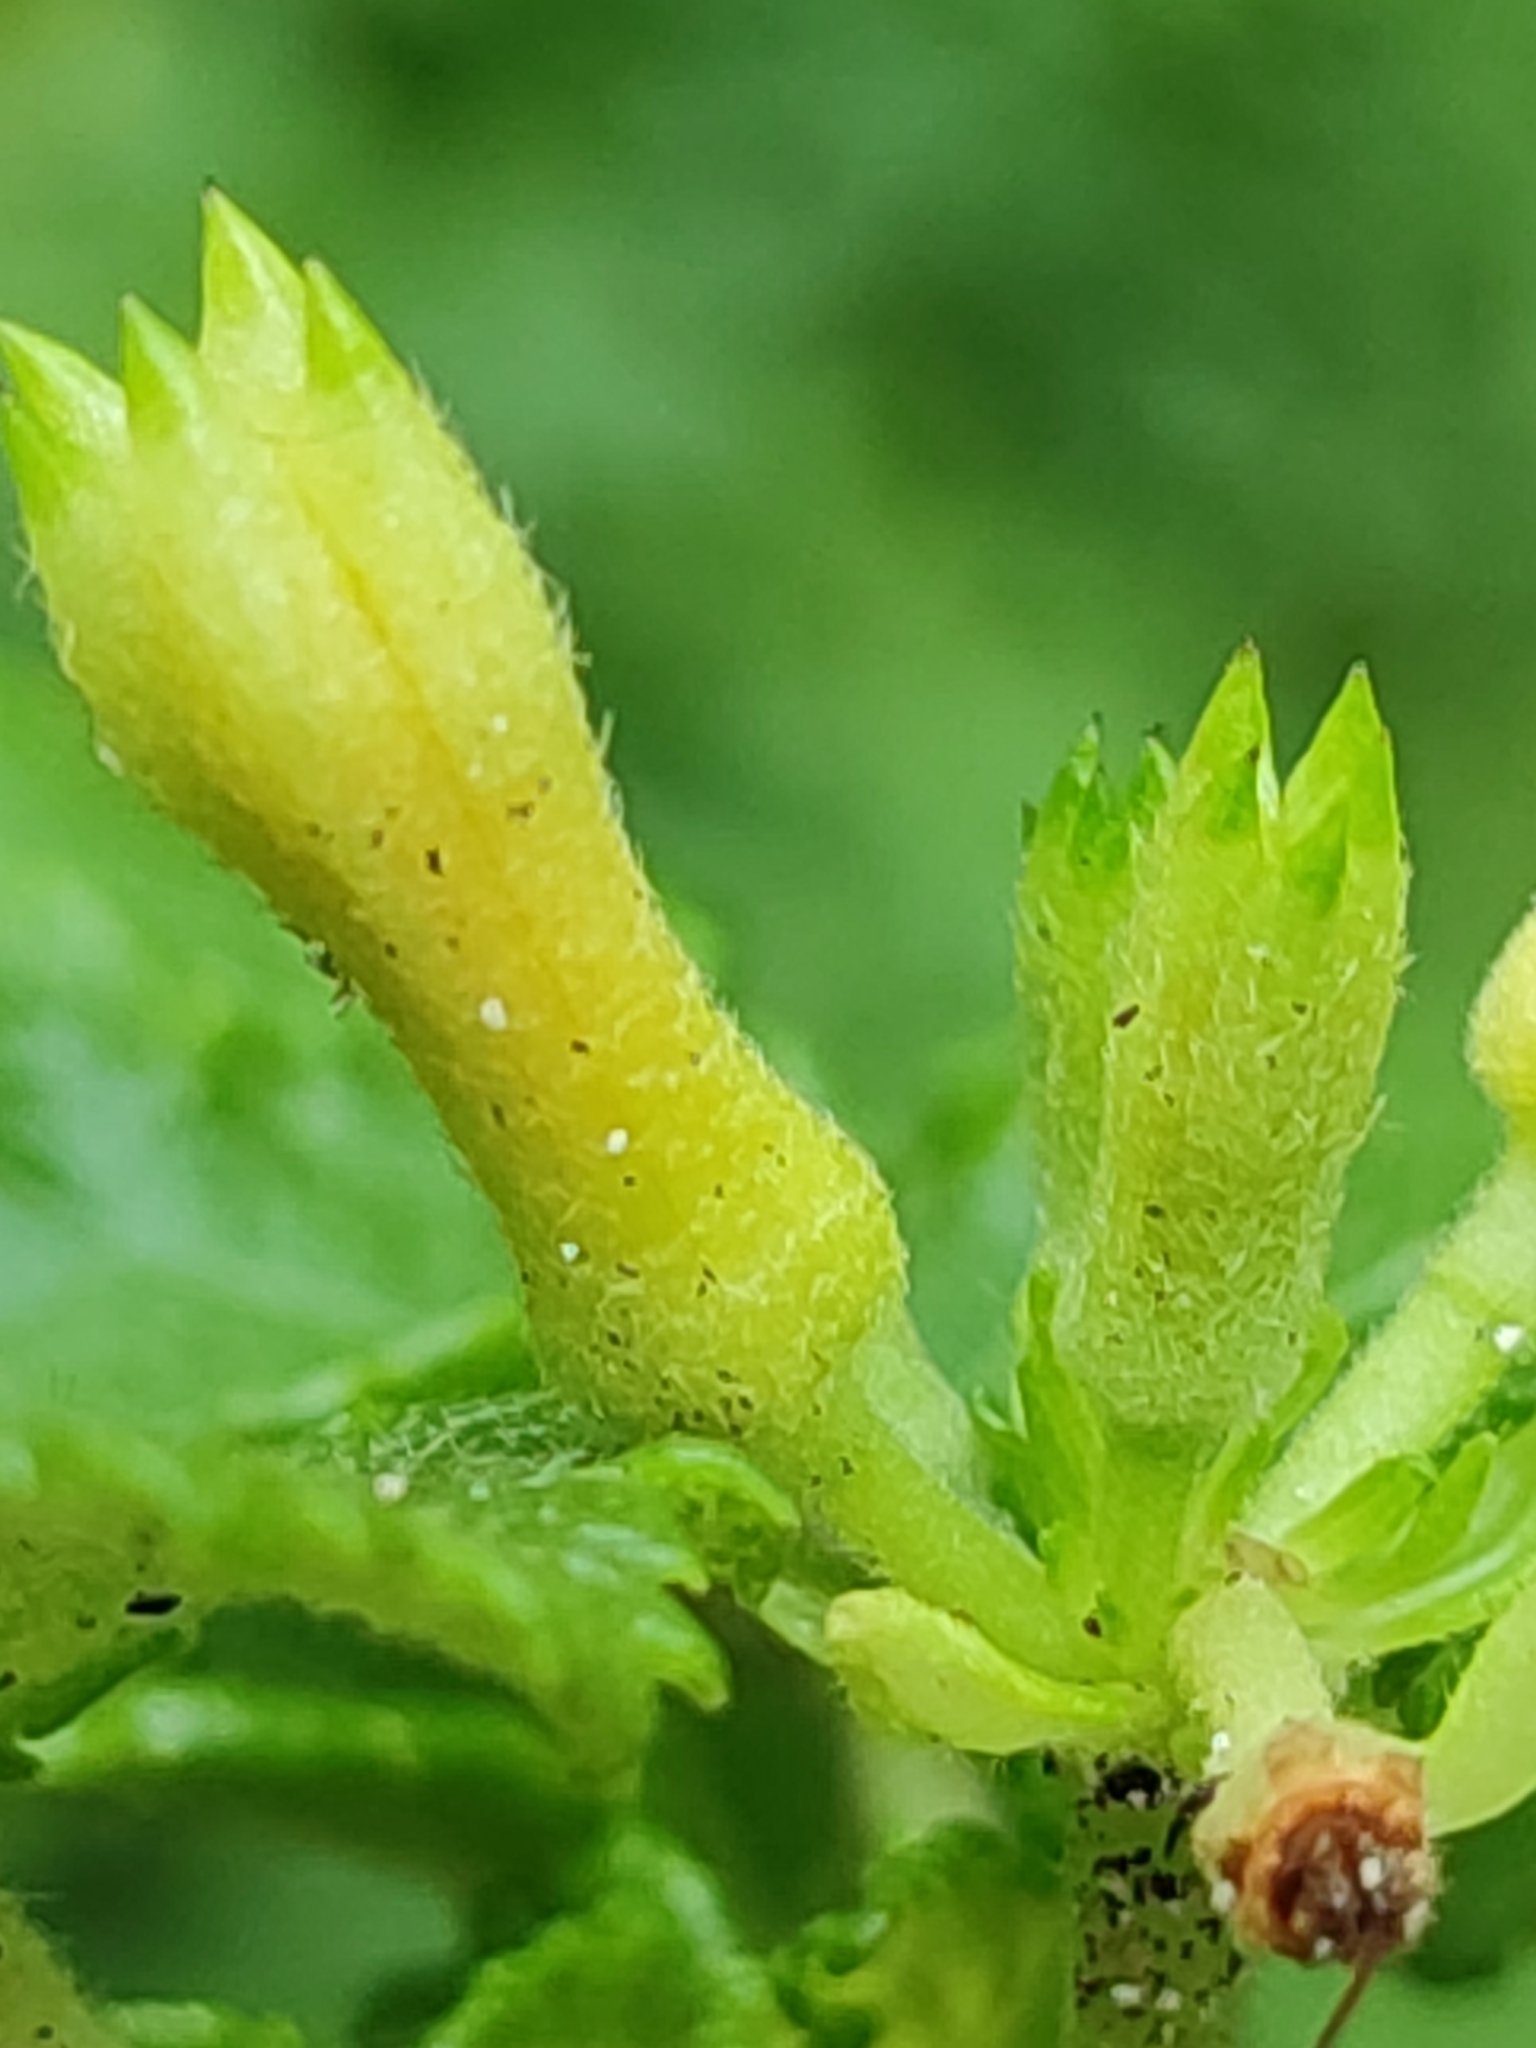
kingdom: Plantae
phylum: Tracheophyta
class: Magnoliopsida
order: Malvales
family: Malvaceae
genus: Triumfetta
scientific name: Triumfetta procumbens
